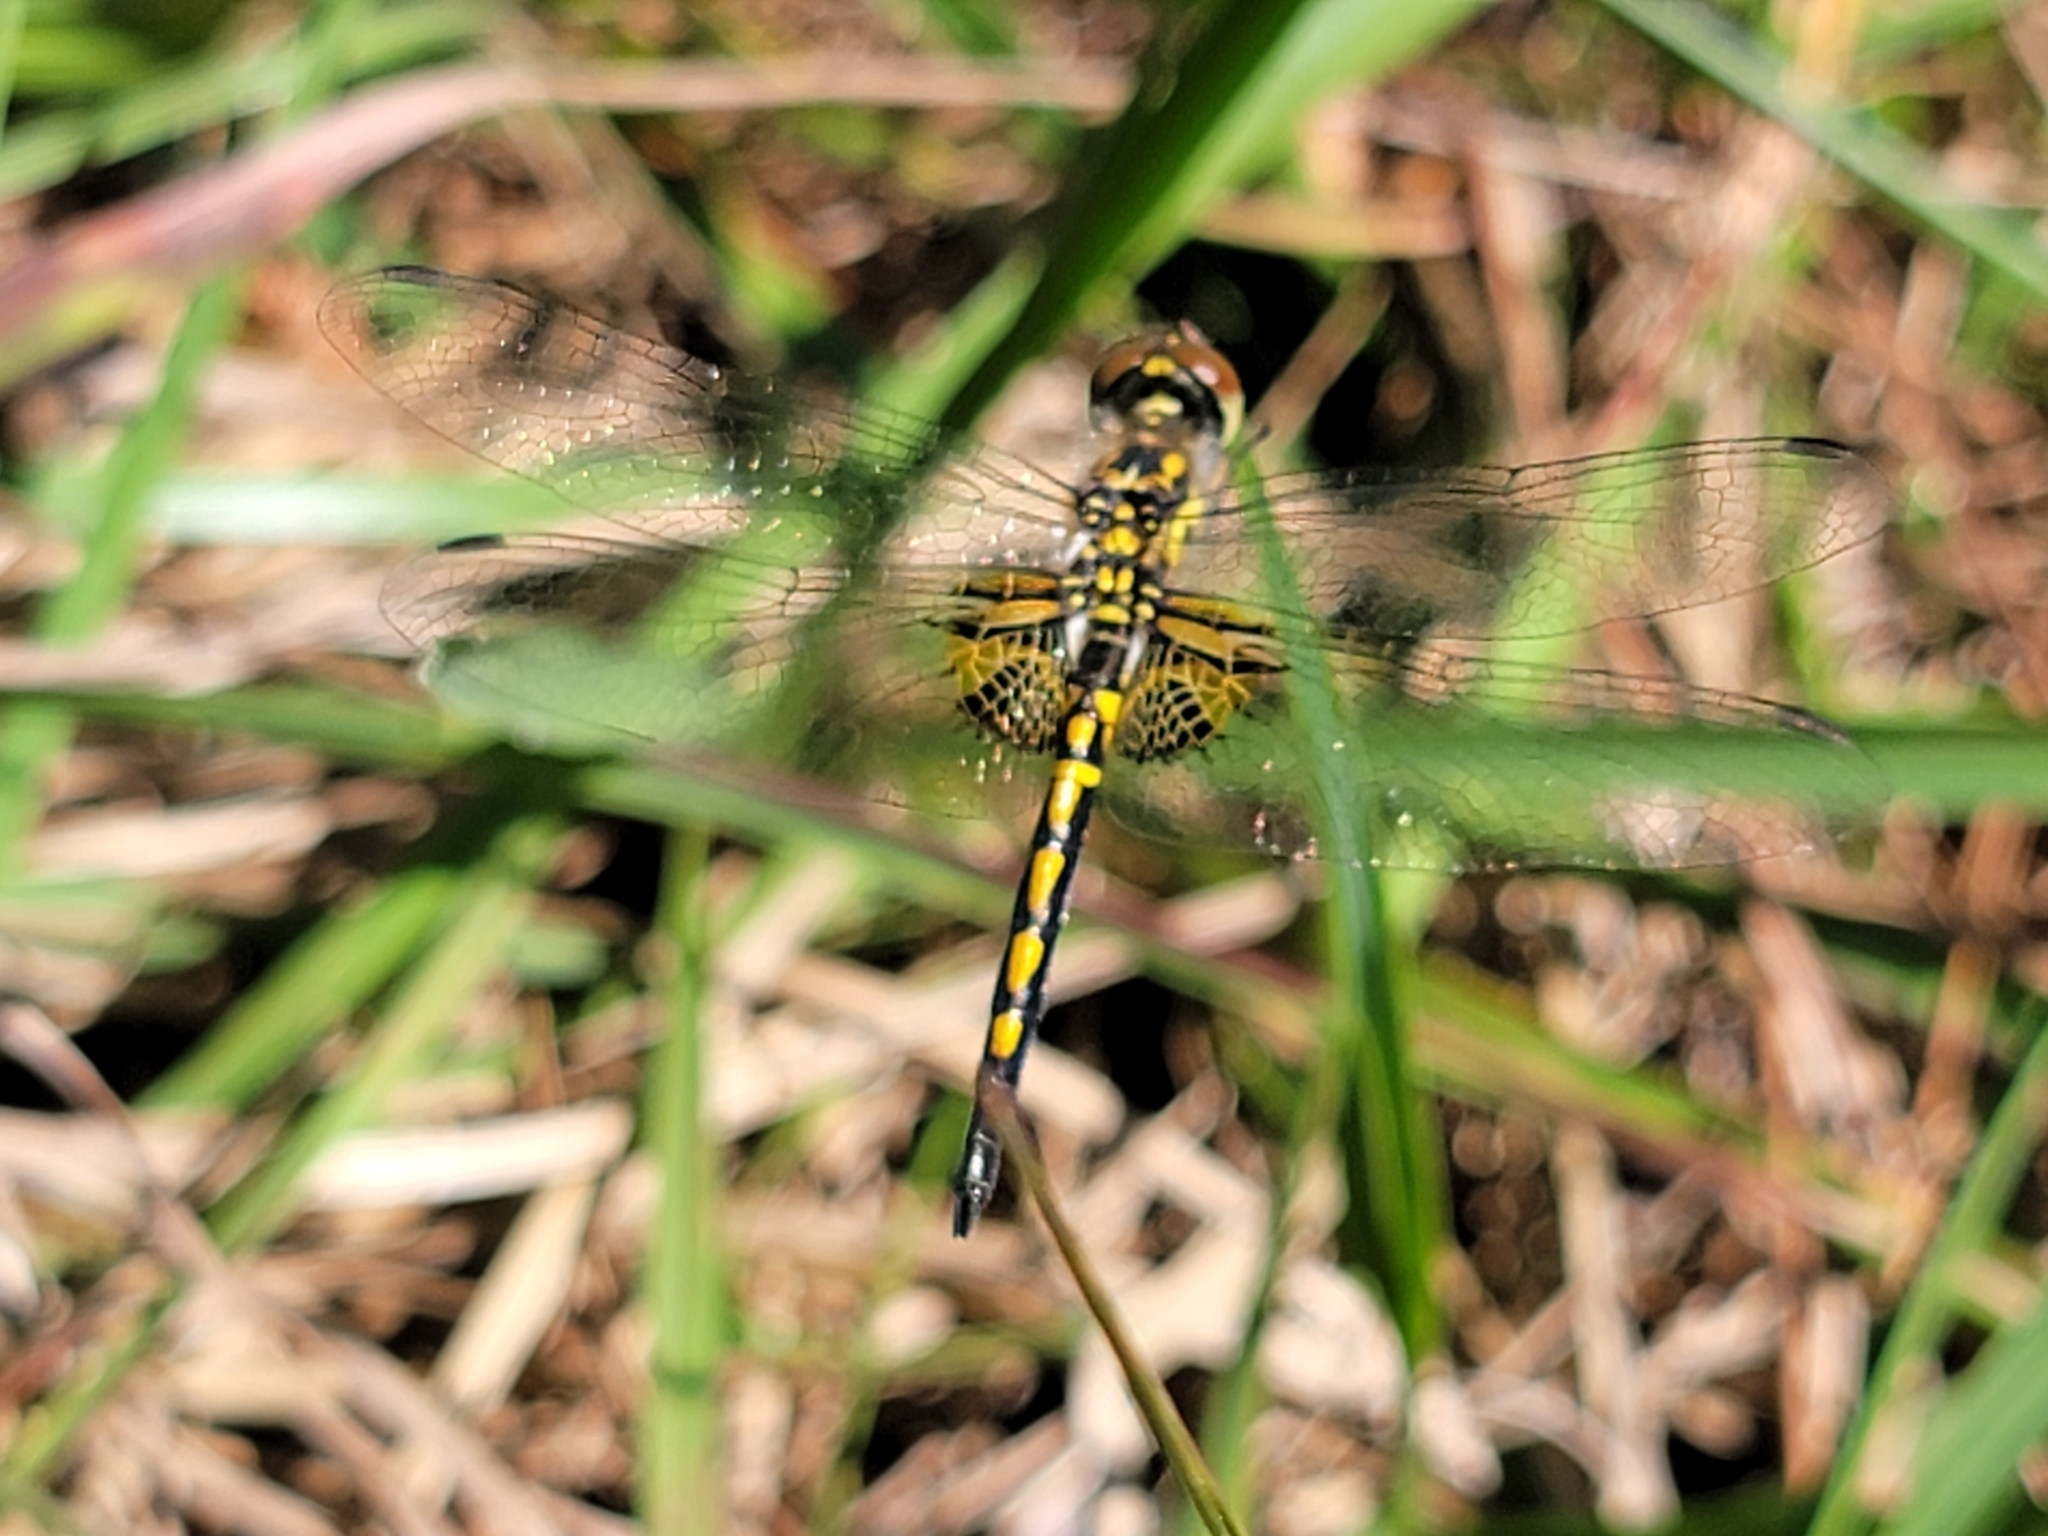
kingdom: Animalia
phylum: Arthropoda
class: Insecta
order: Odonata
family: Libellulidae
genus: Celithemis
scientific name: Celithemis ornata
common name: Ornate pennant
